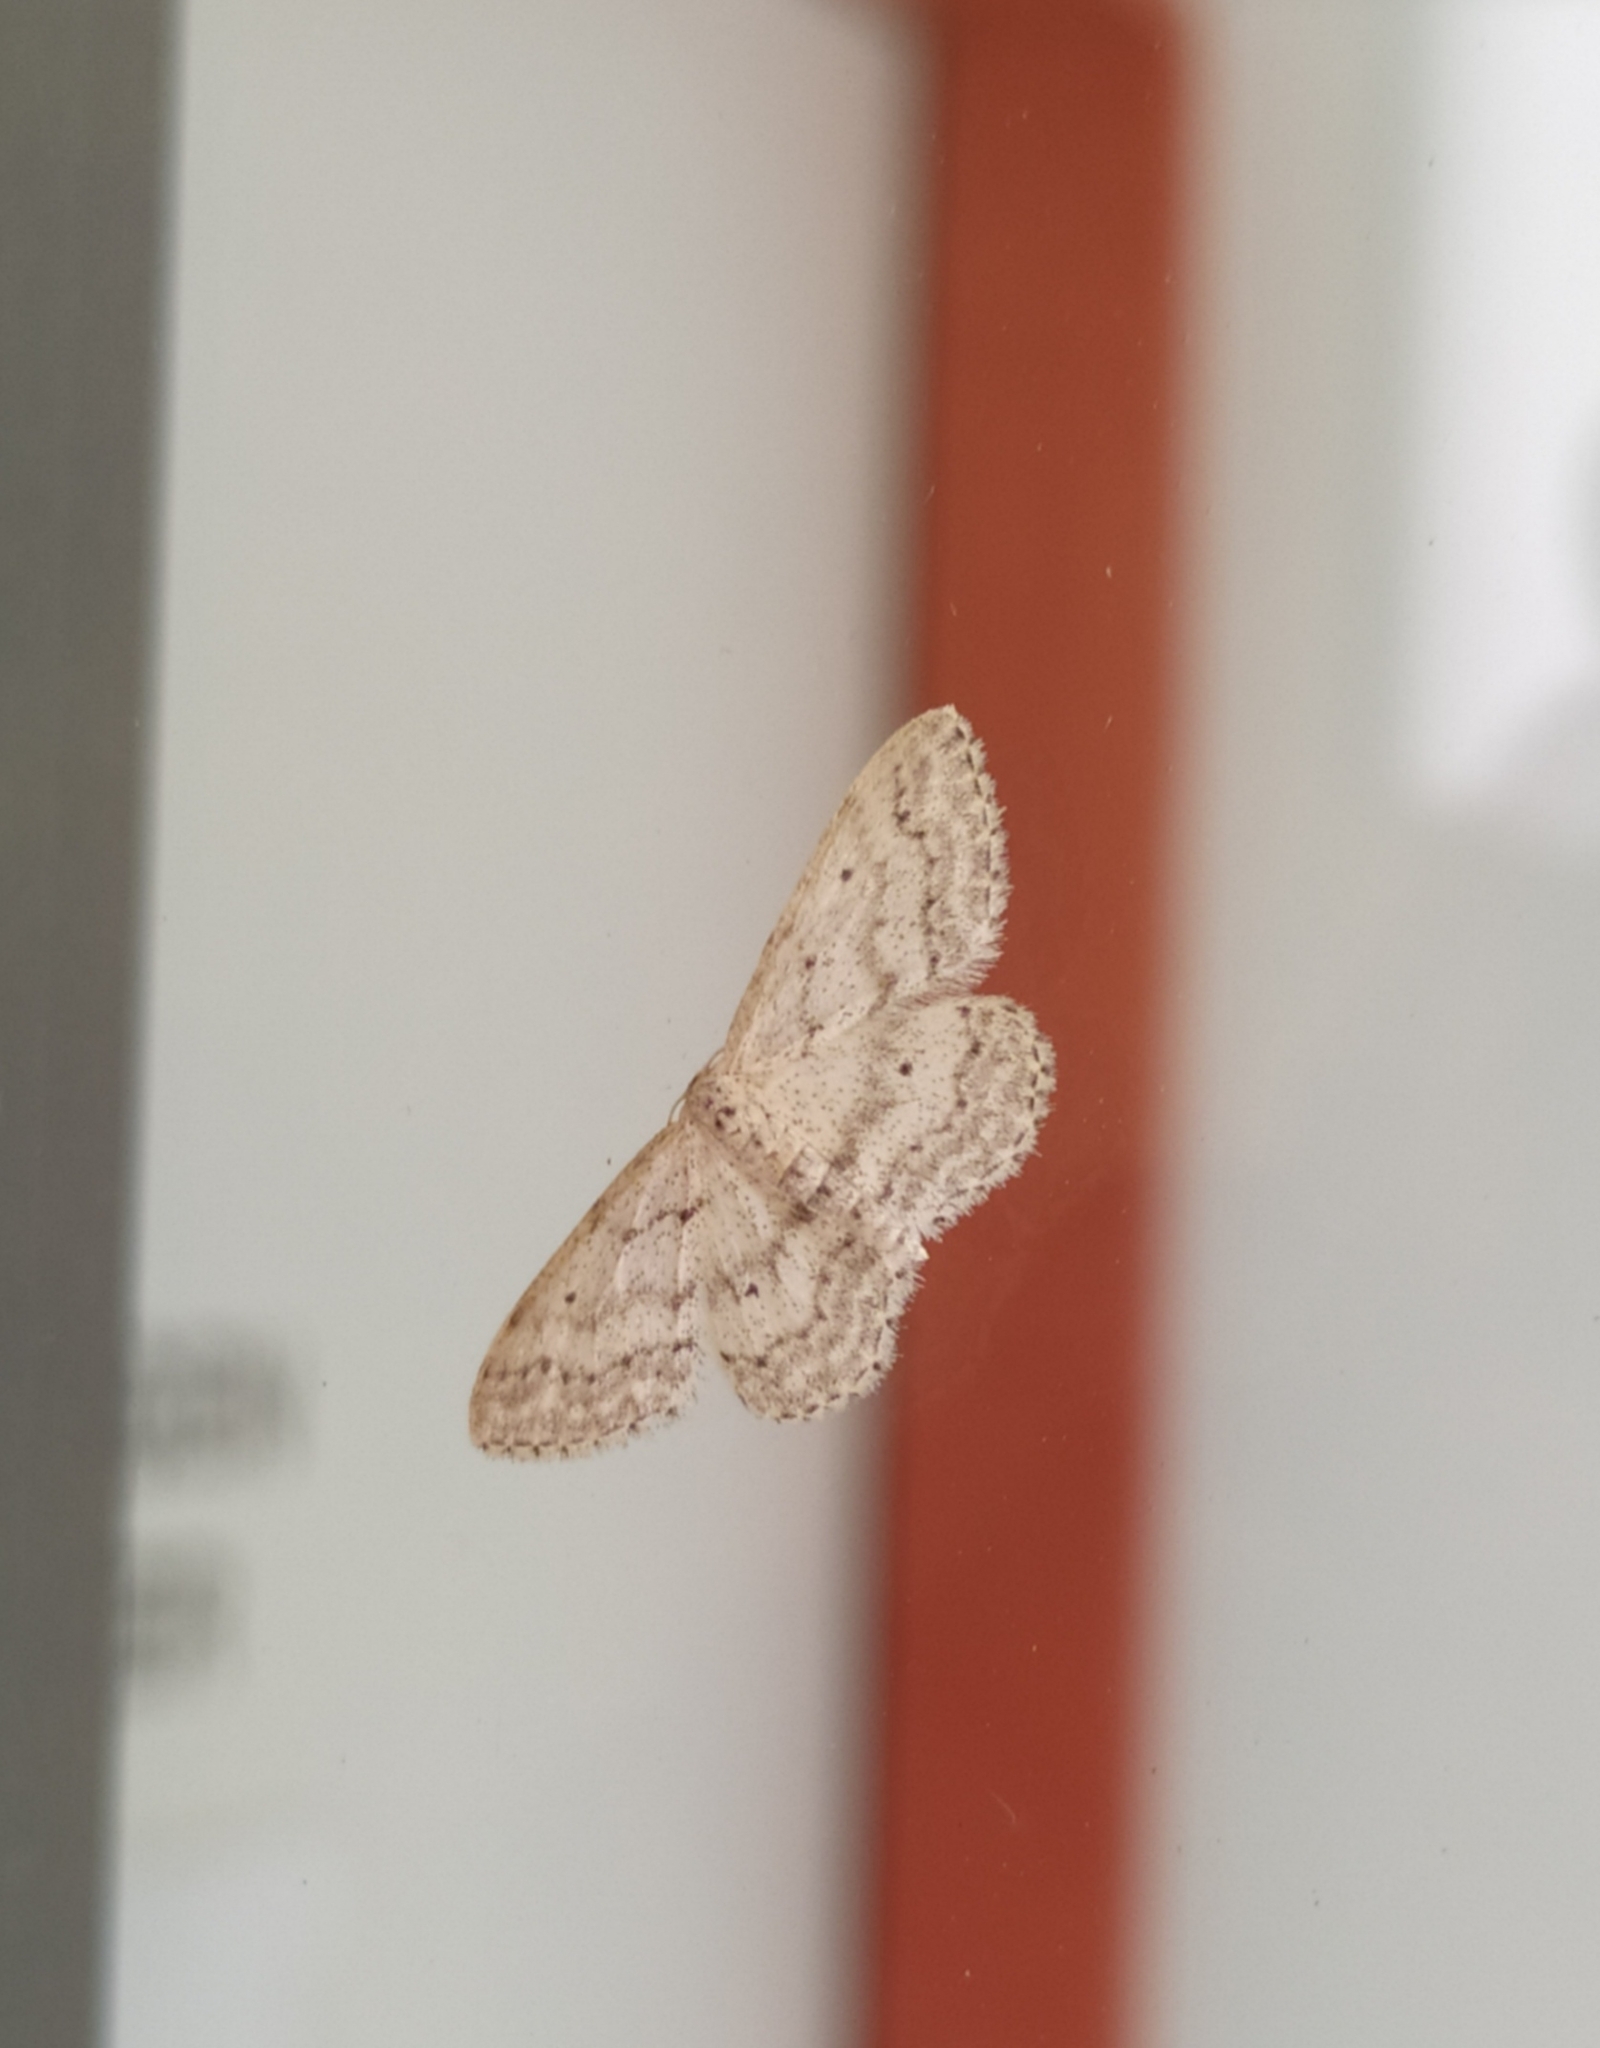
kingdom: Animalia
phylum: Arthropoda
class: Insecta
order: Lepidoptera
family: Geometridae
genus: Idaea
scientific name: Idaea seriata
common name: Small dusty wave
